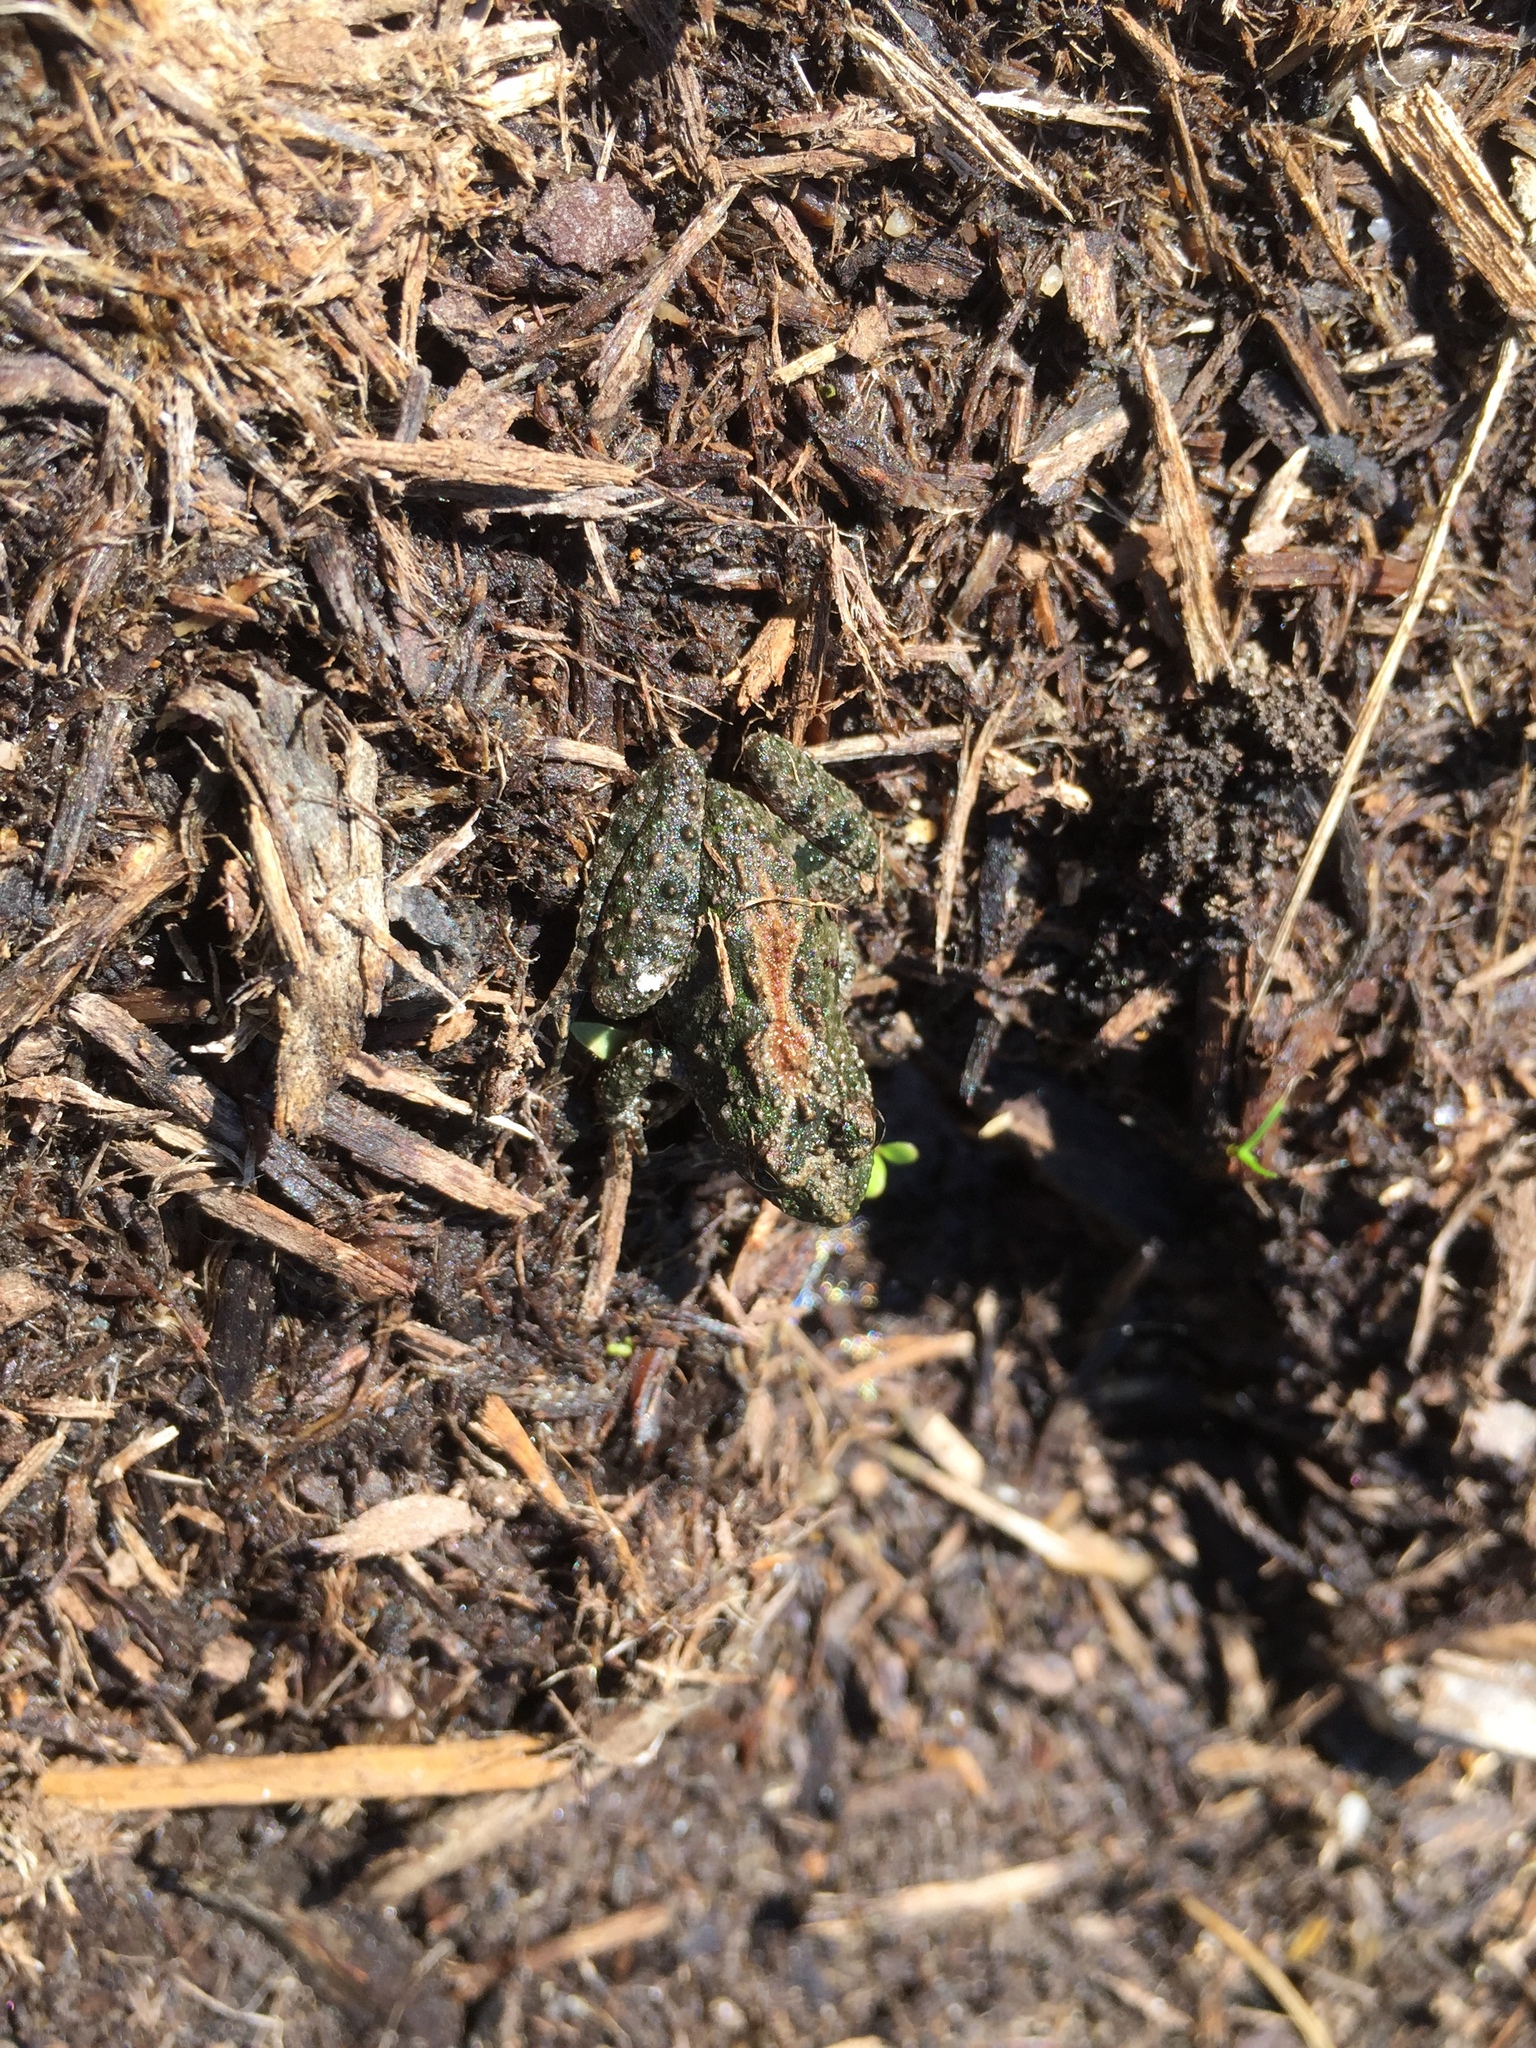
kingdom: Animalia
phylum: Chordata
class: Amphibia
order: Anura
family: Hylidae
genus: Acris
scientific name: Acris crepitans
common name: Northern cricket frog
